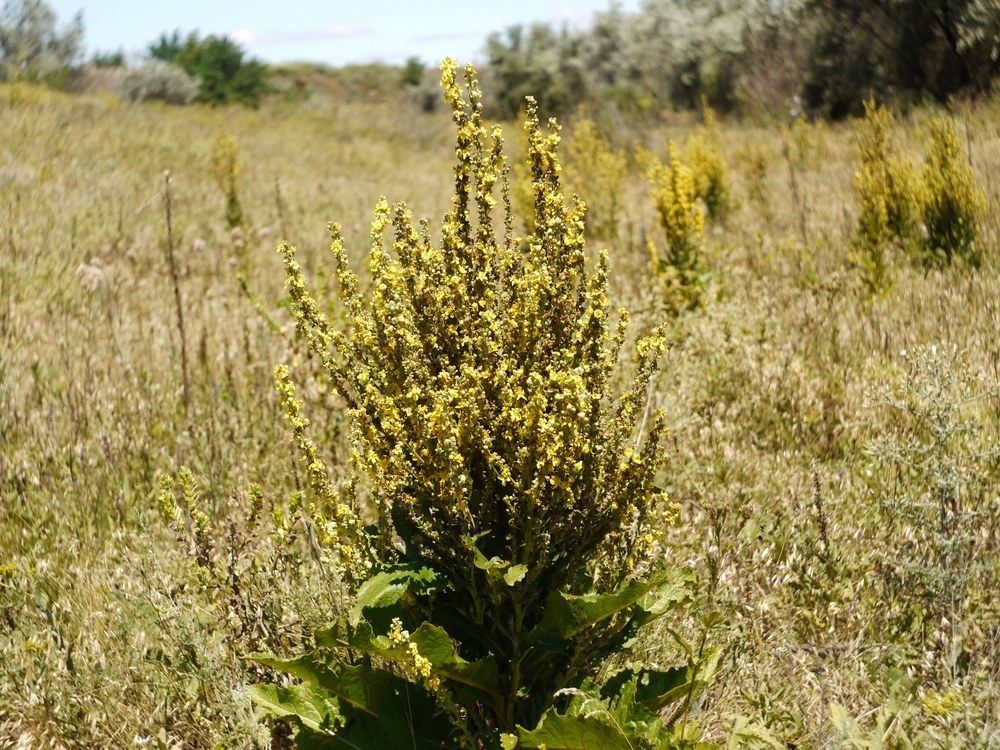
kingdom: Plantae
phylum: Tracheophyta
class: Magnoliopsida
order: Lamiales
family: Scrophulariaceae
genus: Verbascum
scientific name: Verbascum nigrum
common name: Dark mullein
